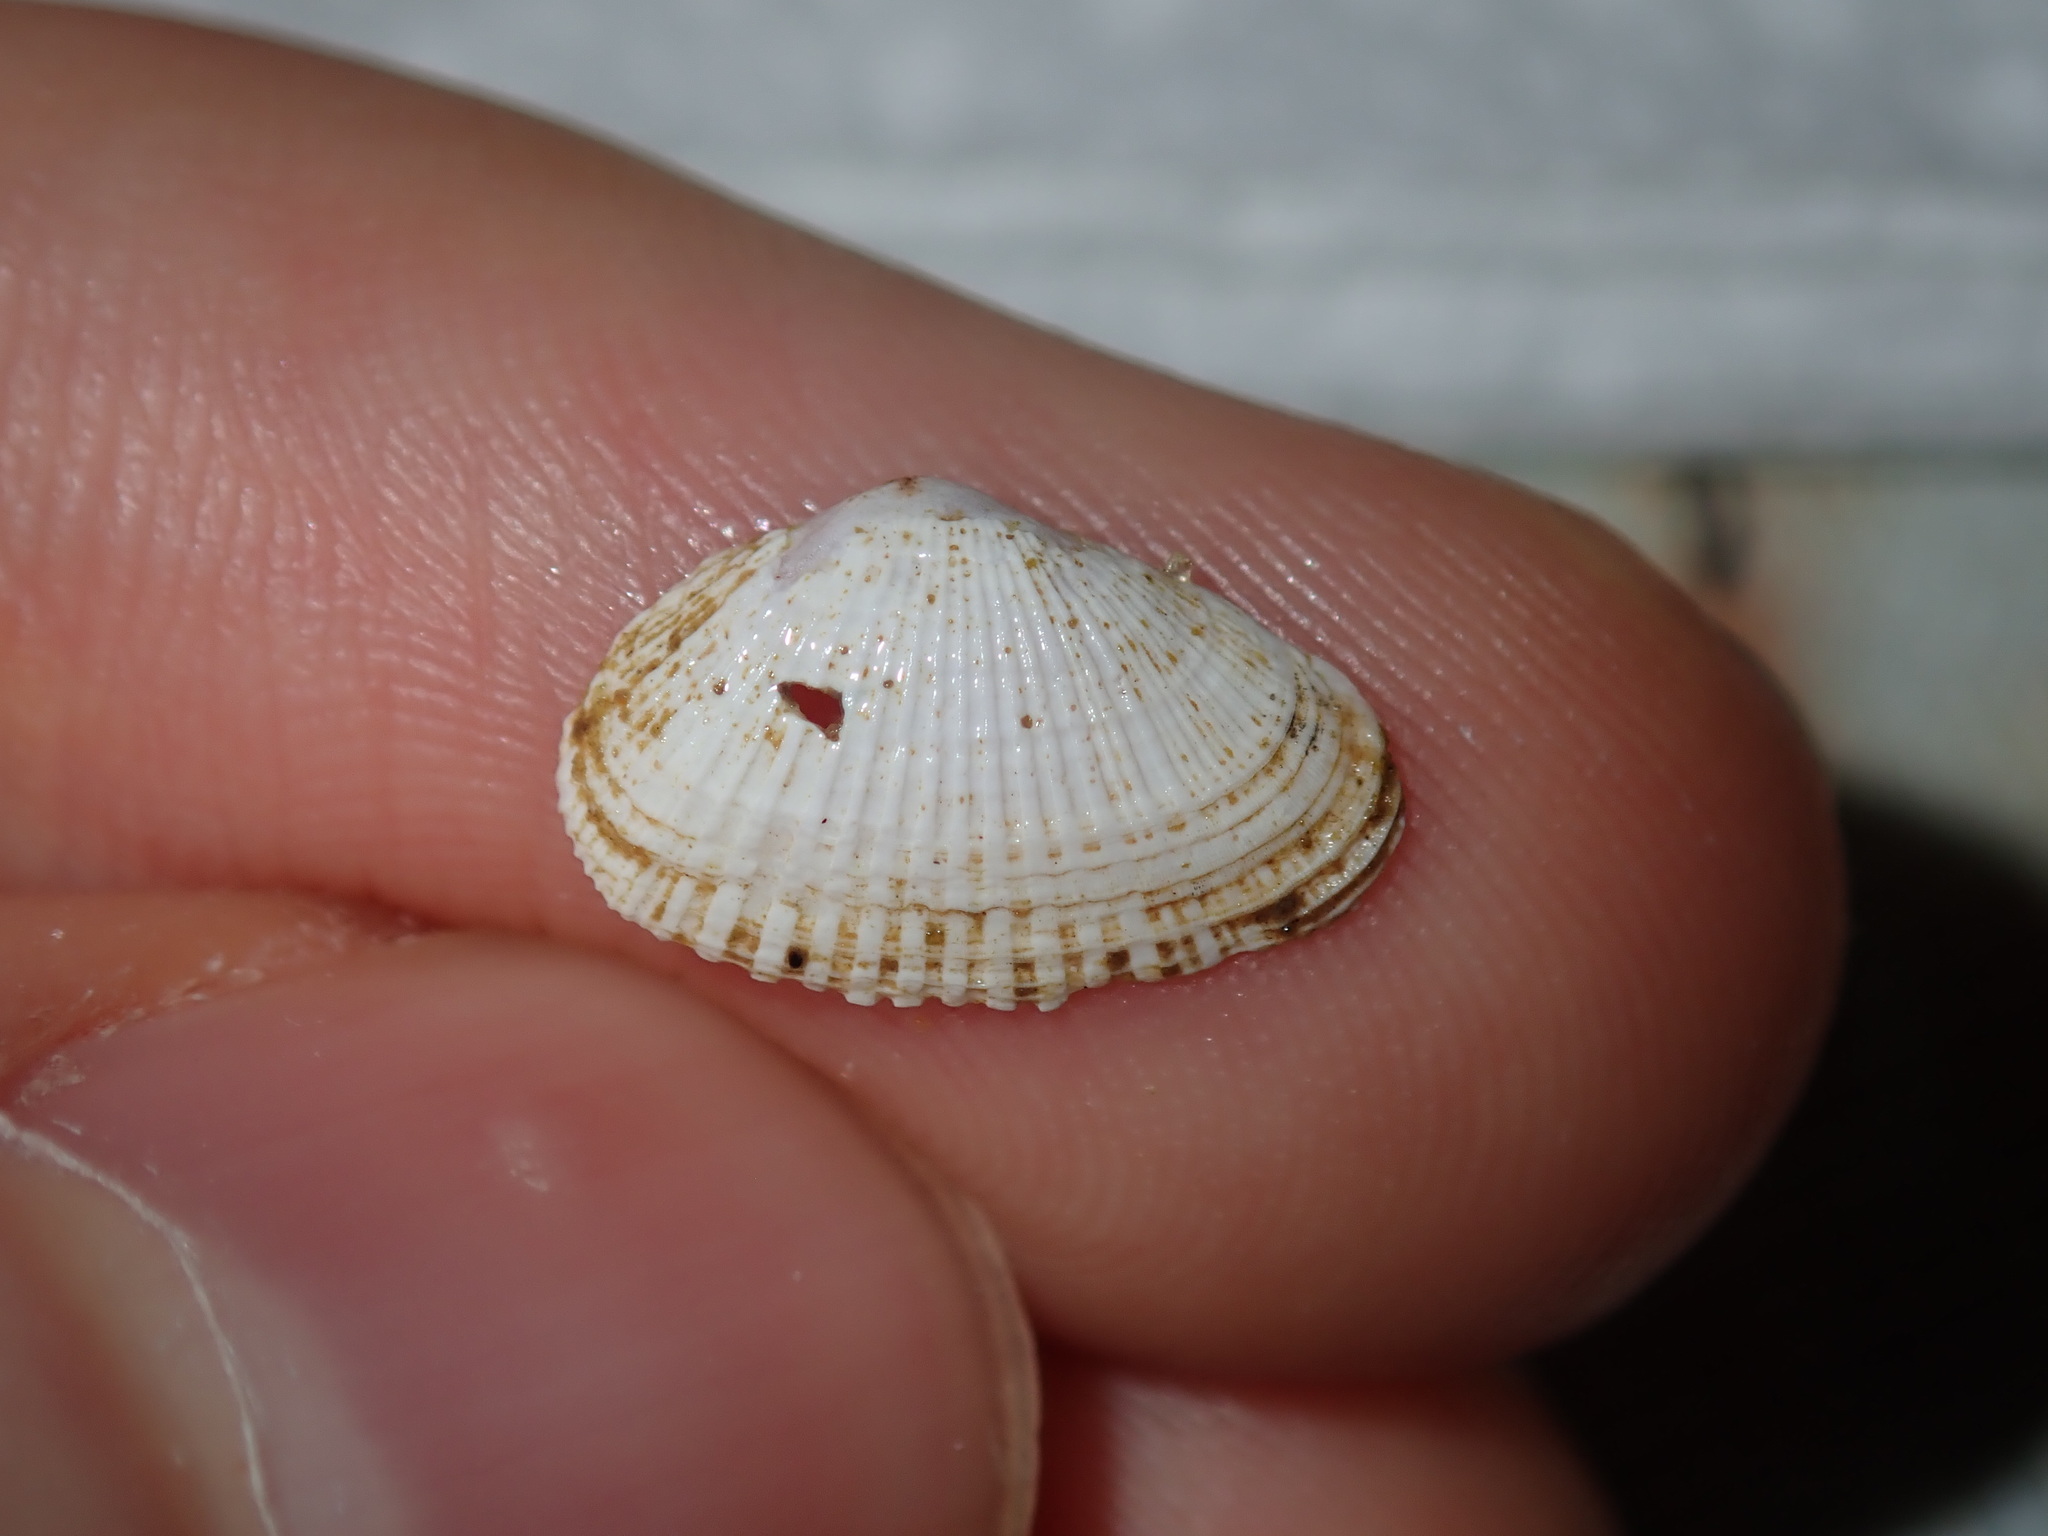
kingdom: Animalia
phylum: Mollusca
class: Bivalvia
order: Venerida
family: Hemidonacidae
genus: Hemidonax
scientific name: Hemidonax dactylus
